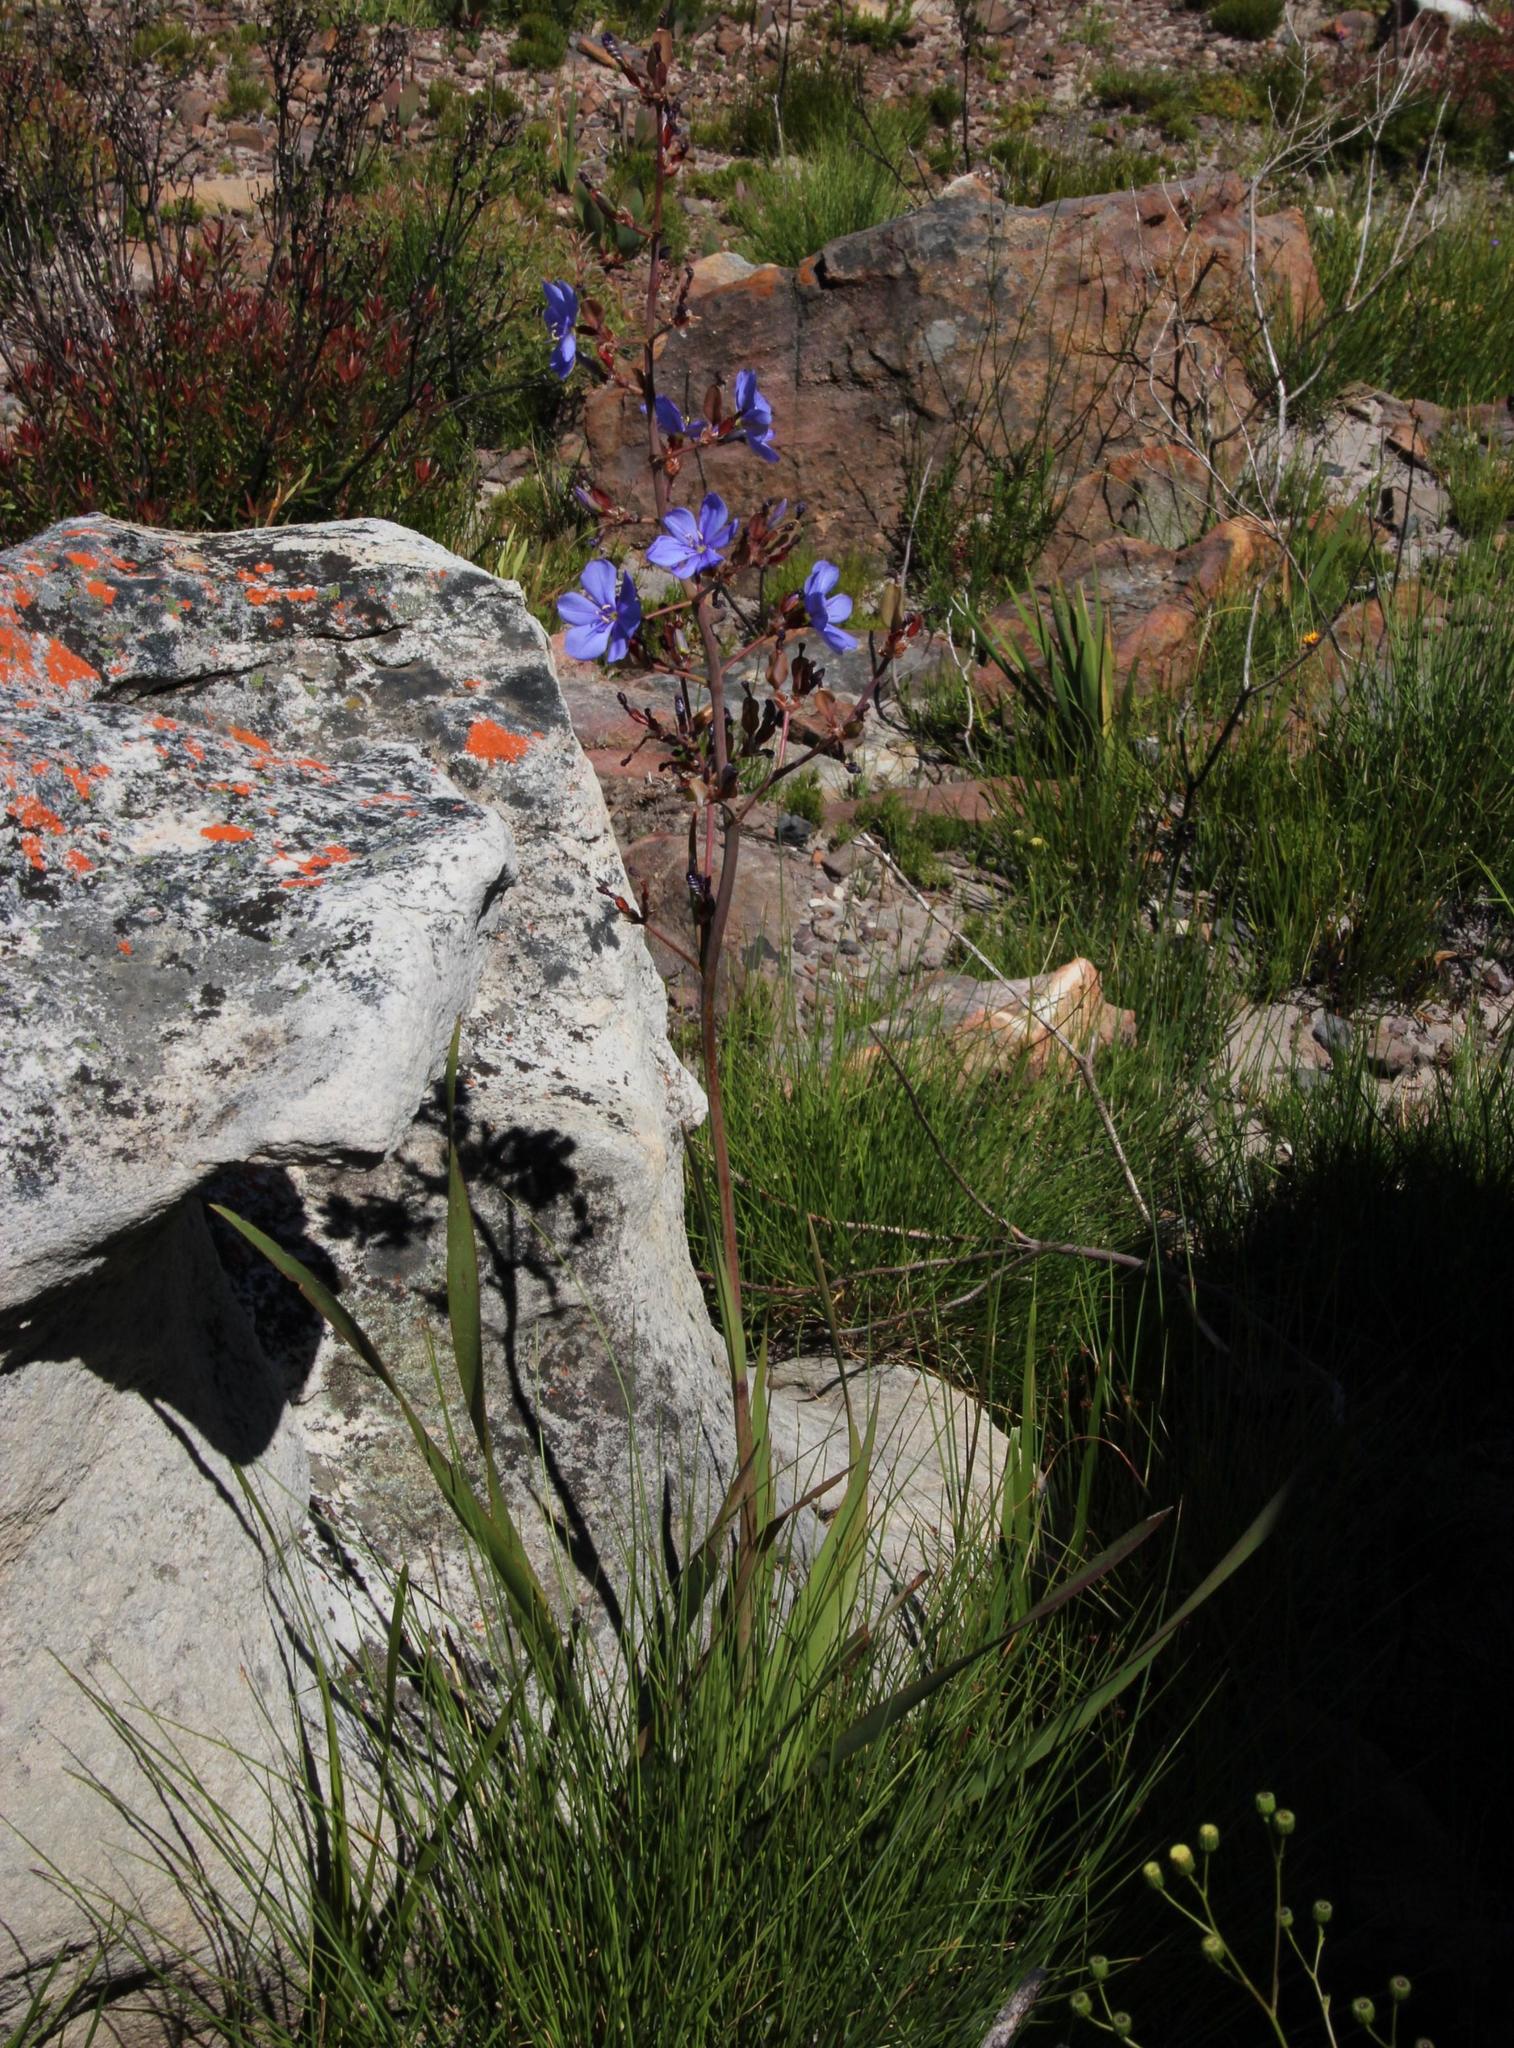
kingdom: Plantae
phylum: Tracheophyta
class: Liliopsida
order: Asparagales
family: Iridaceae
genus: Aristea
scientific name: Aristea bakeri
